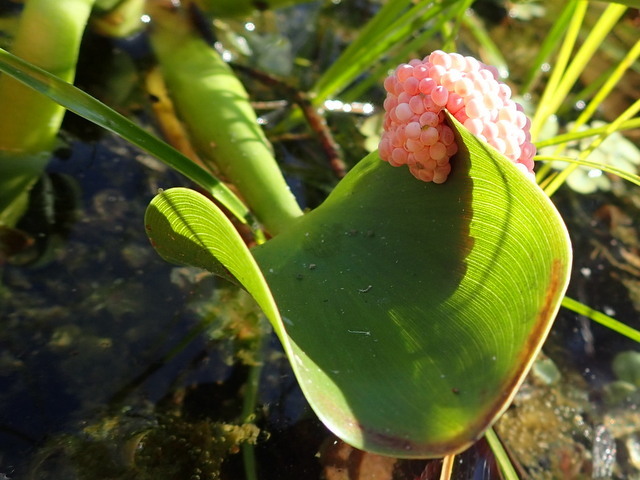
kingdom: Animalia
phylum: Mollusca
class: Gastropoda
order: Architaenioglossa
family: Ampullariidae
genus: Pomacea
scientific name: Pomacea maculata
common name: Giant applesnail
